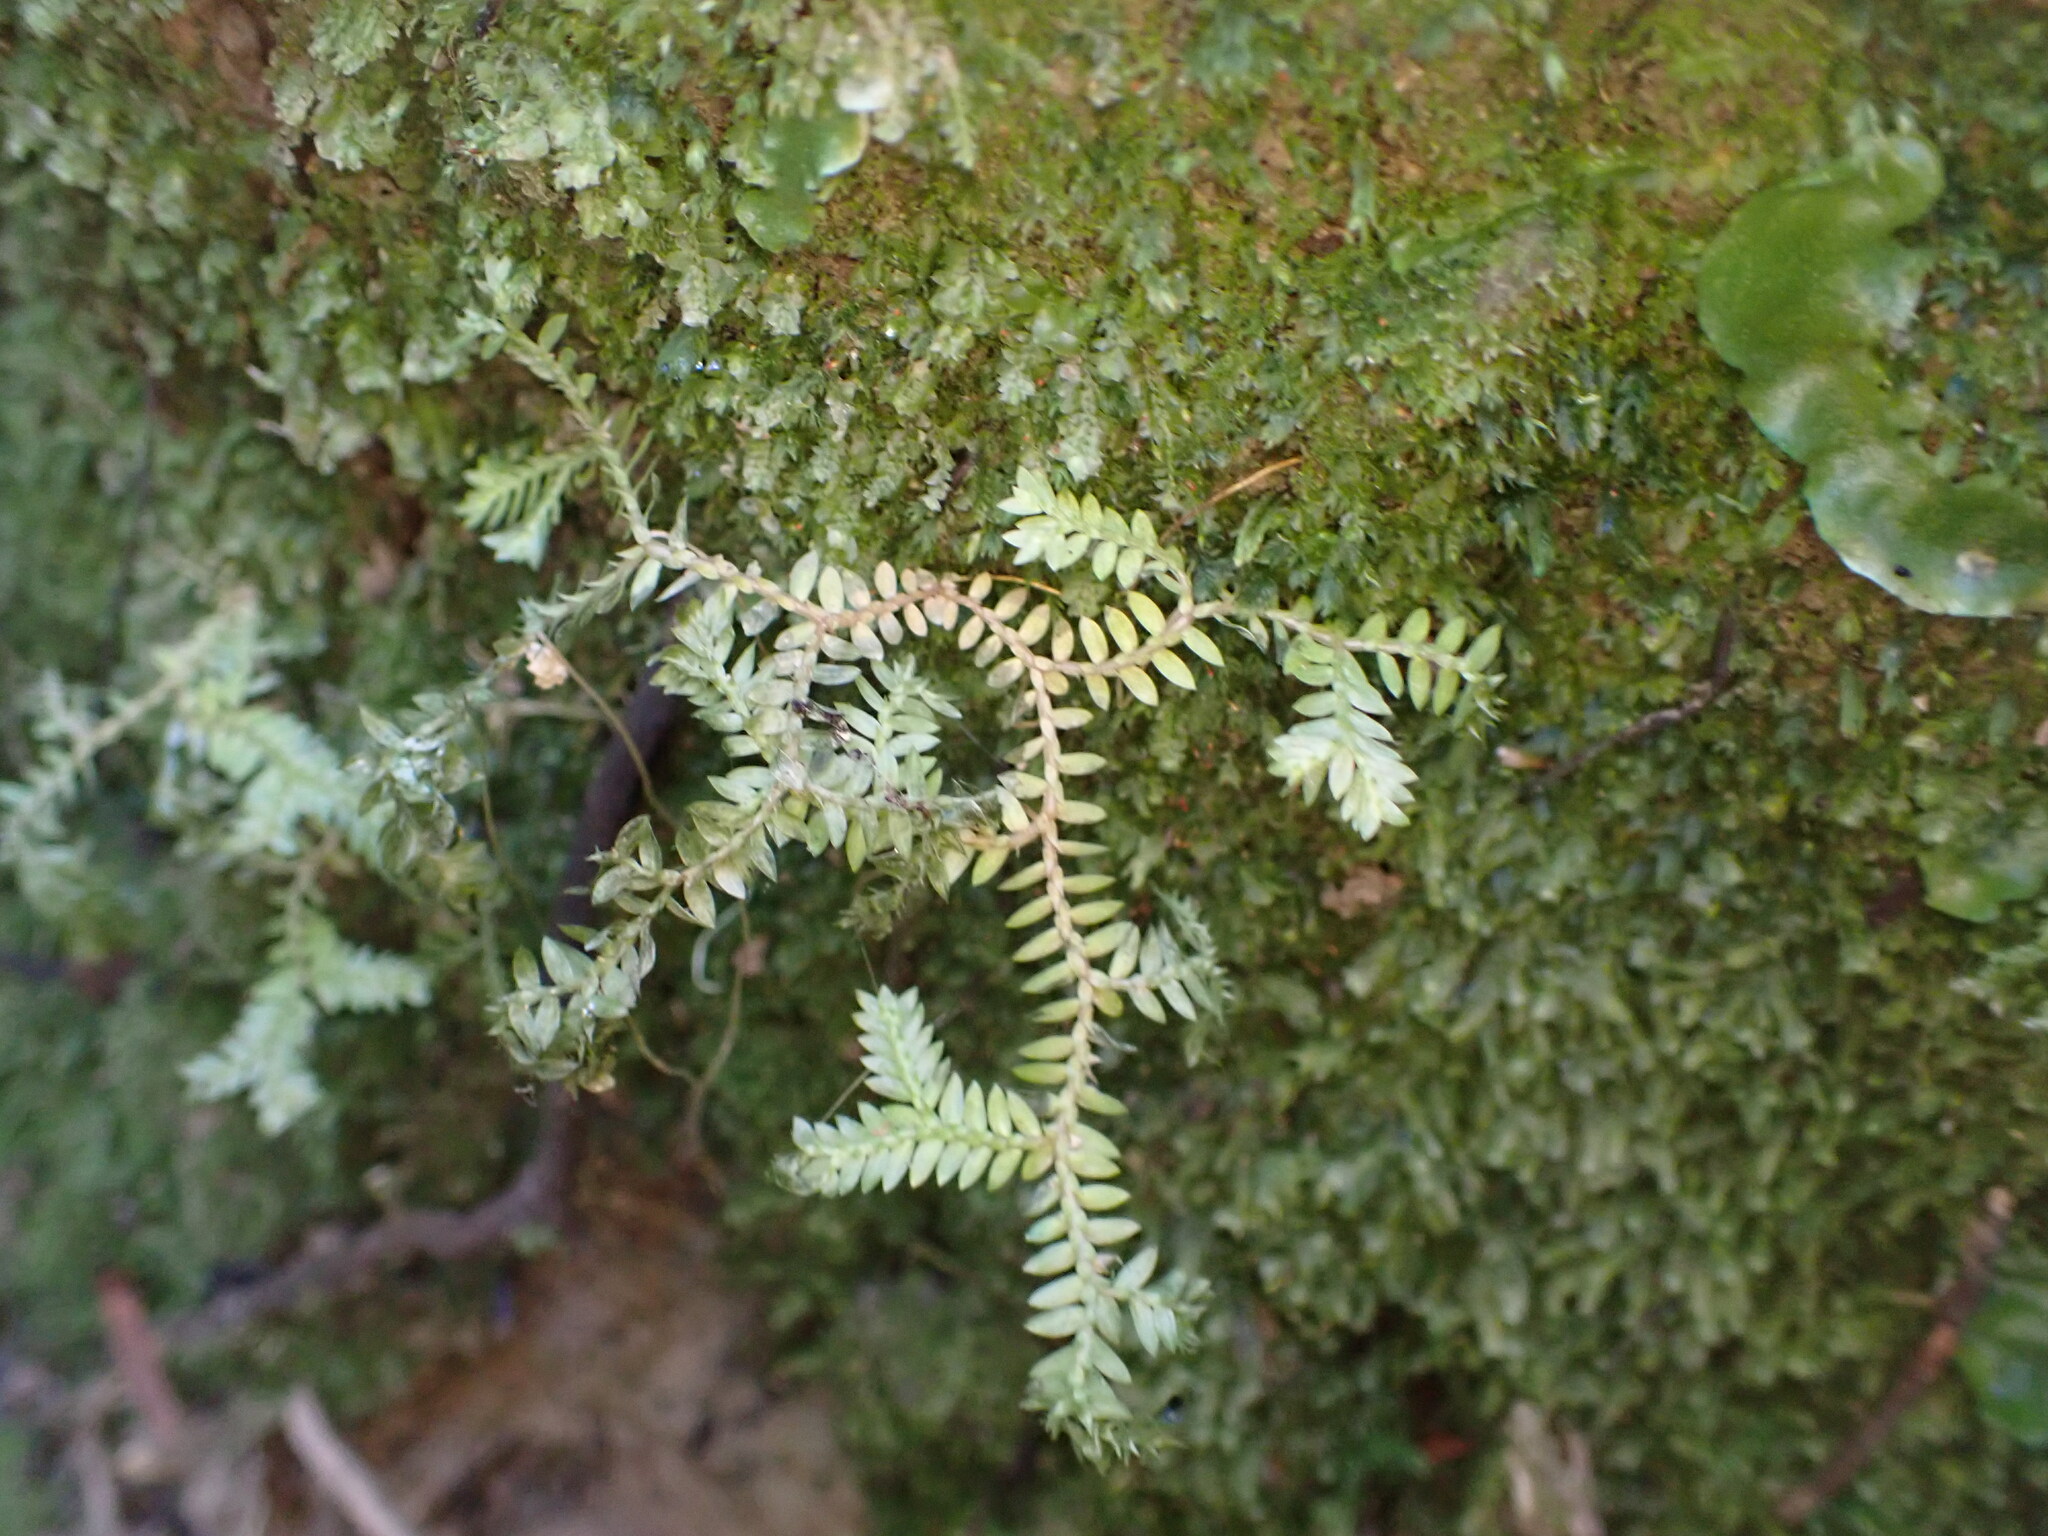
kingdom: Plantae
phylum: Tracheophyta
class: Lycopodiopsida
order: Selaginellales
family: Selaginellaceae
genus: Selaginella
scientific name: Selaginella kraussiana
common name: Krauss' spikemoss
